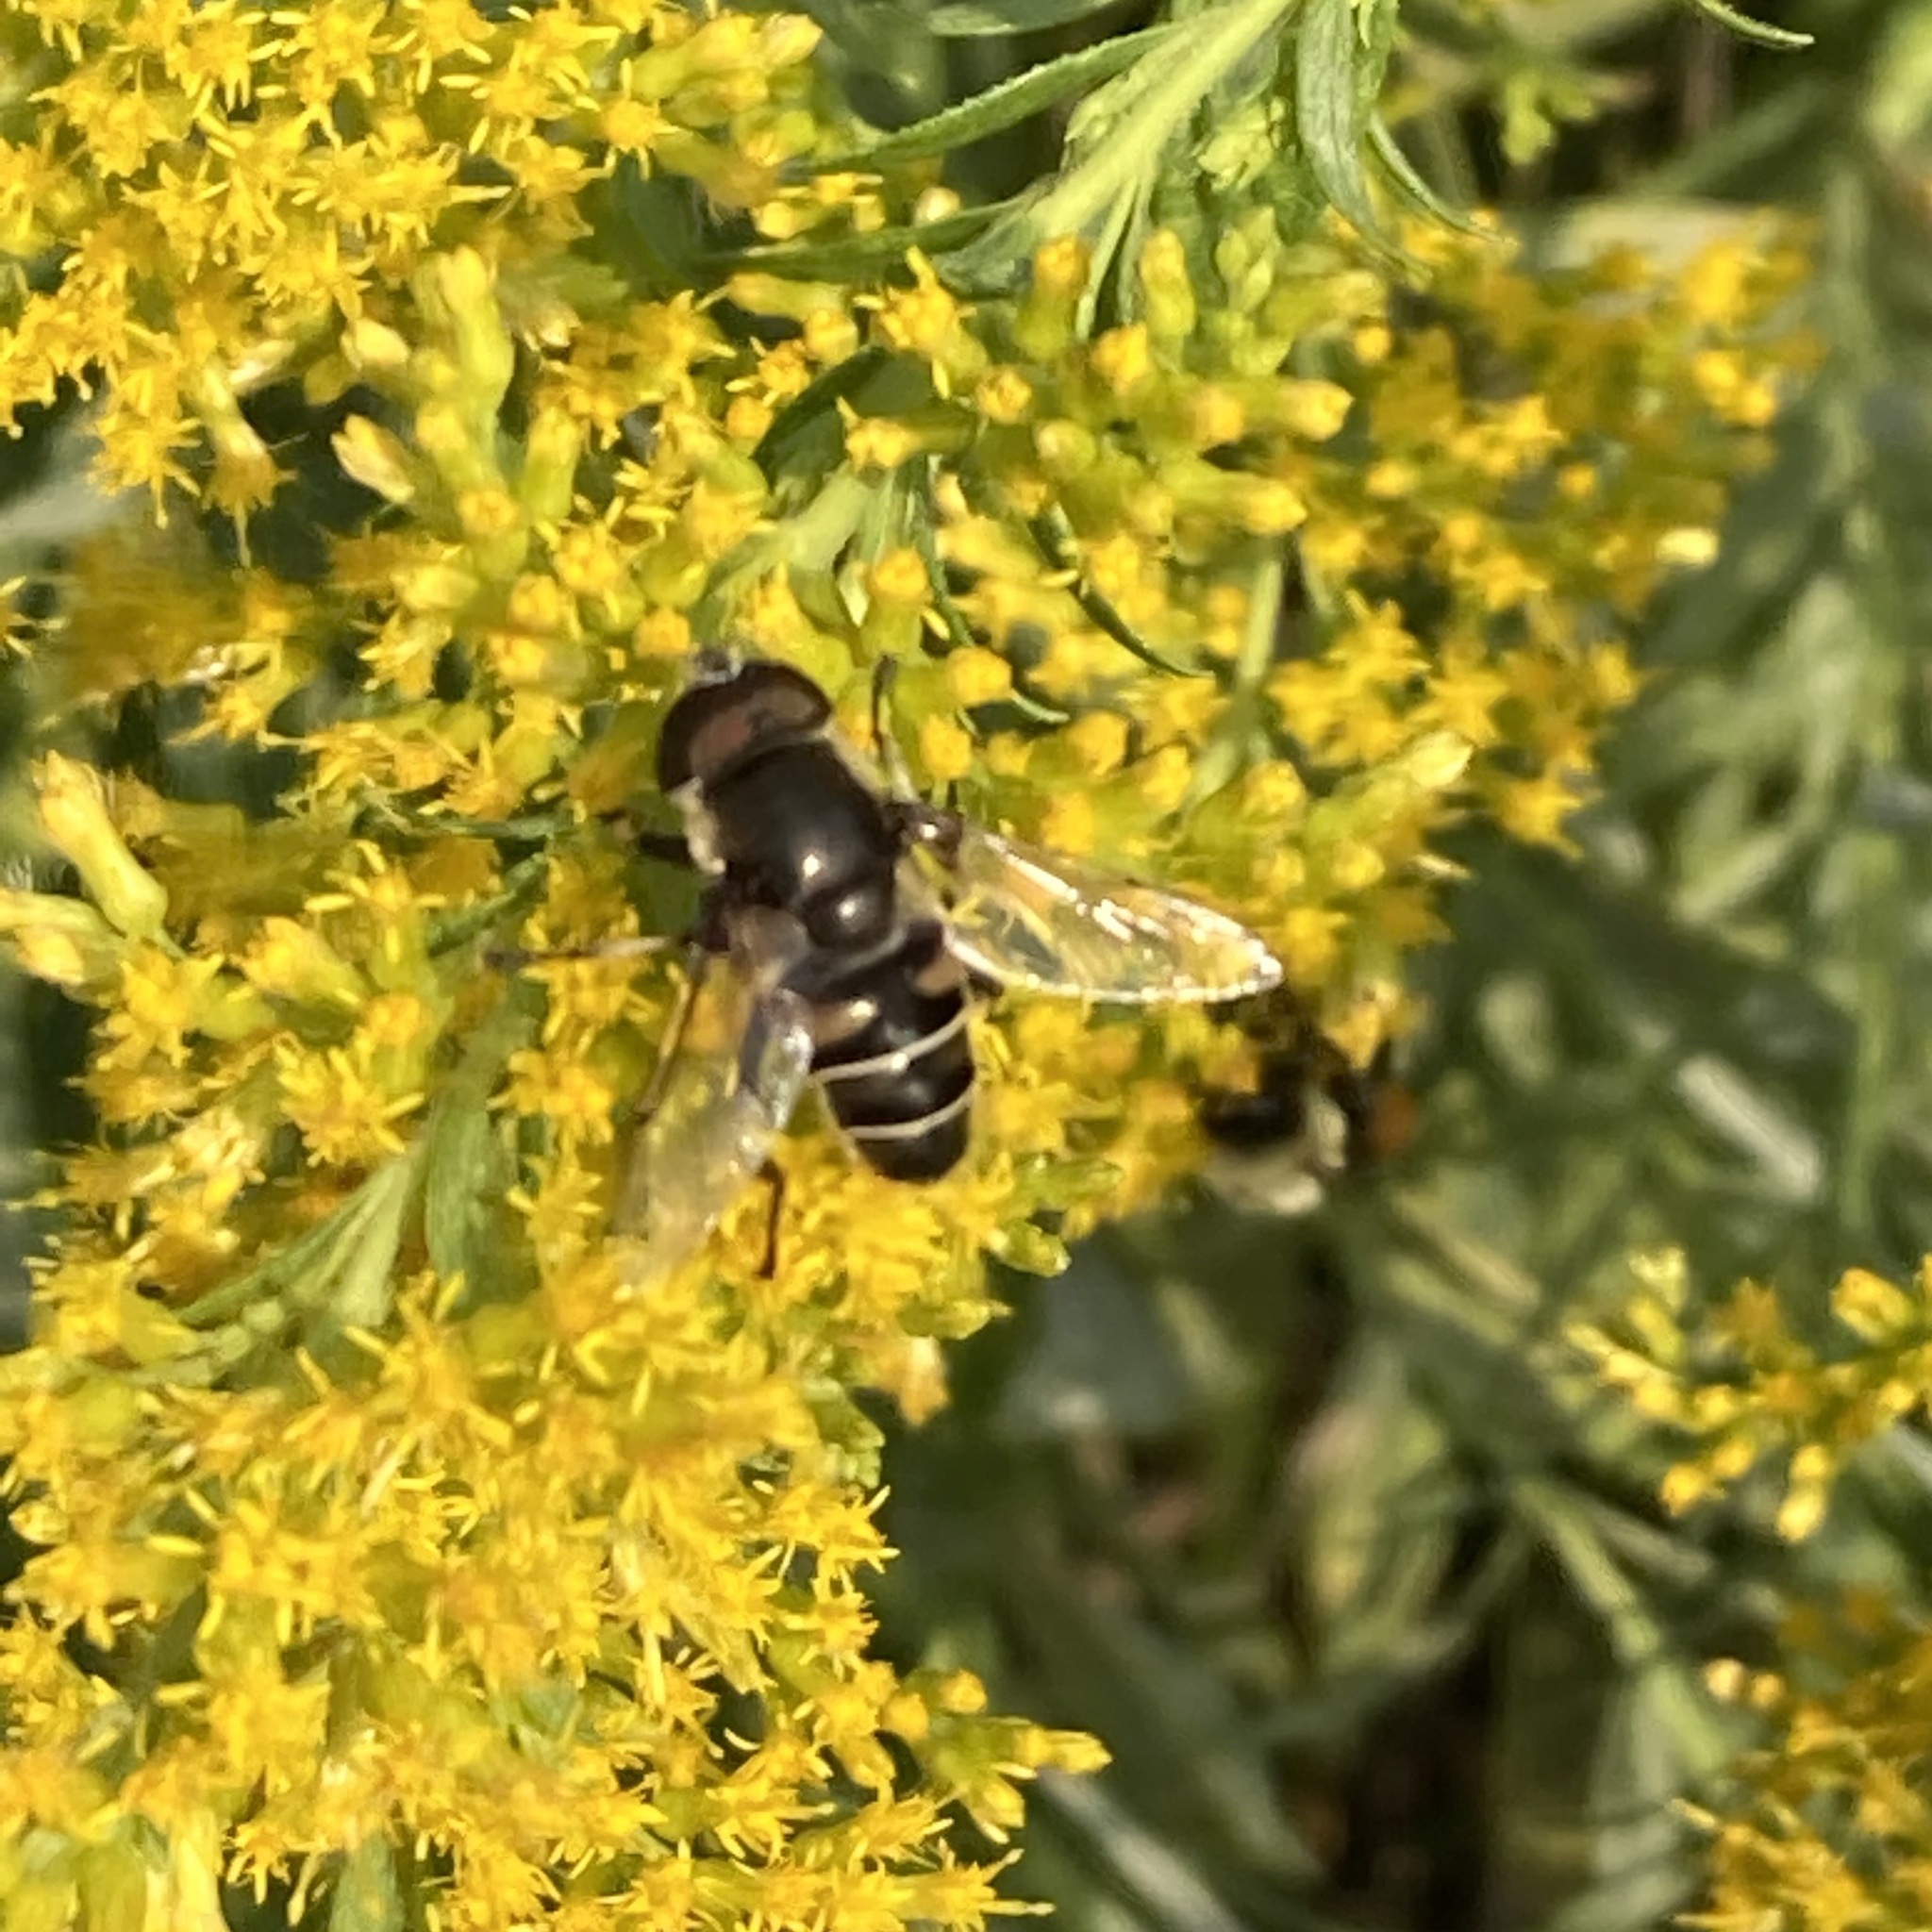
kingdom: Animalia
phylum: Arthropoda
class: Insecta
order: Diptera
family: Syrphidae
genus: Eristalis
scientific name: Eristalis dimidiata
